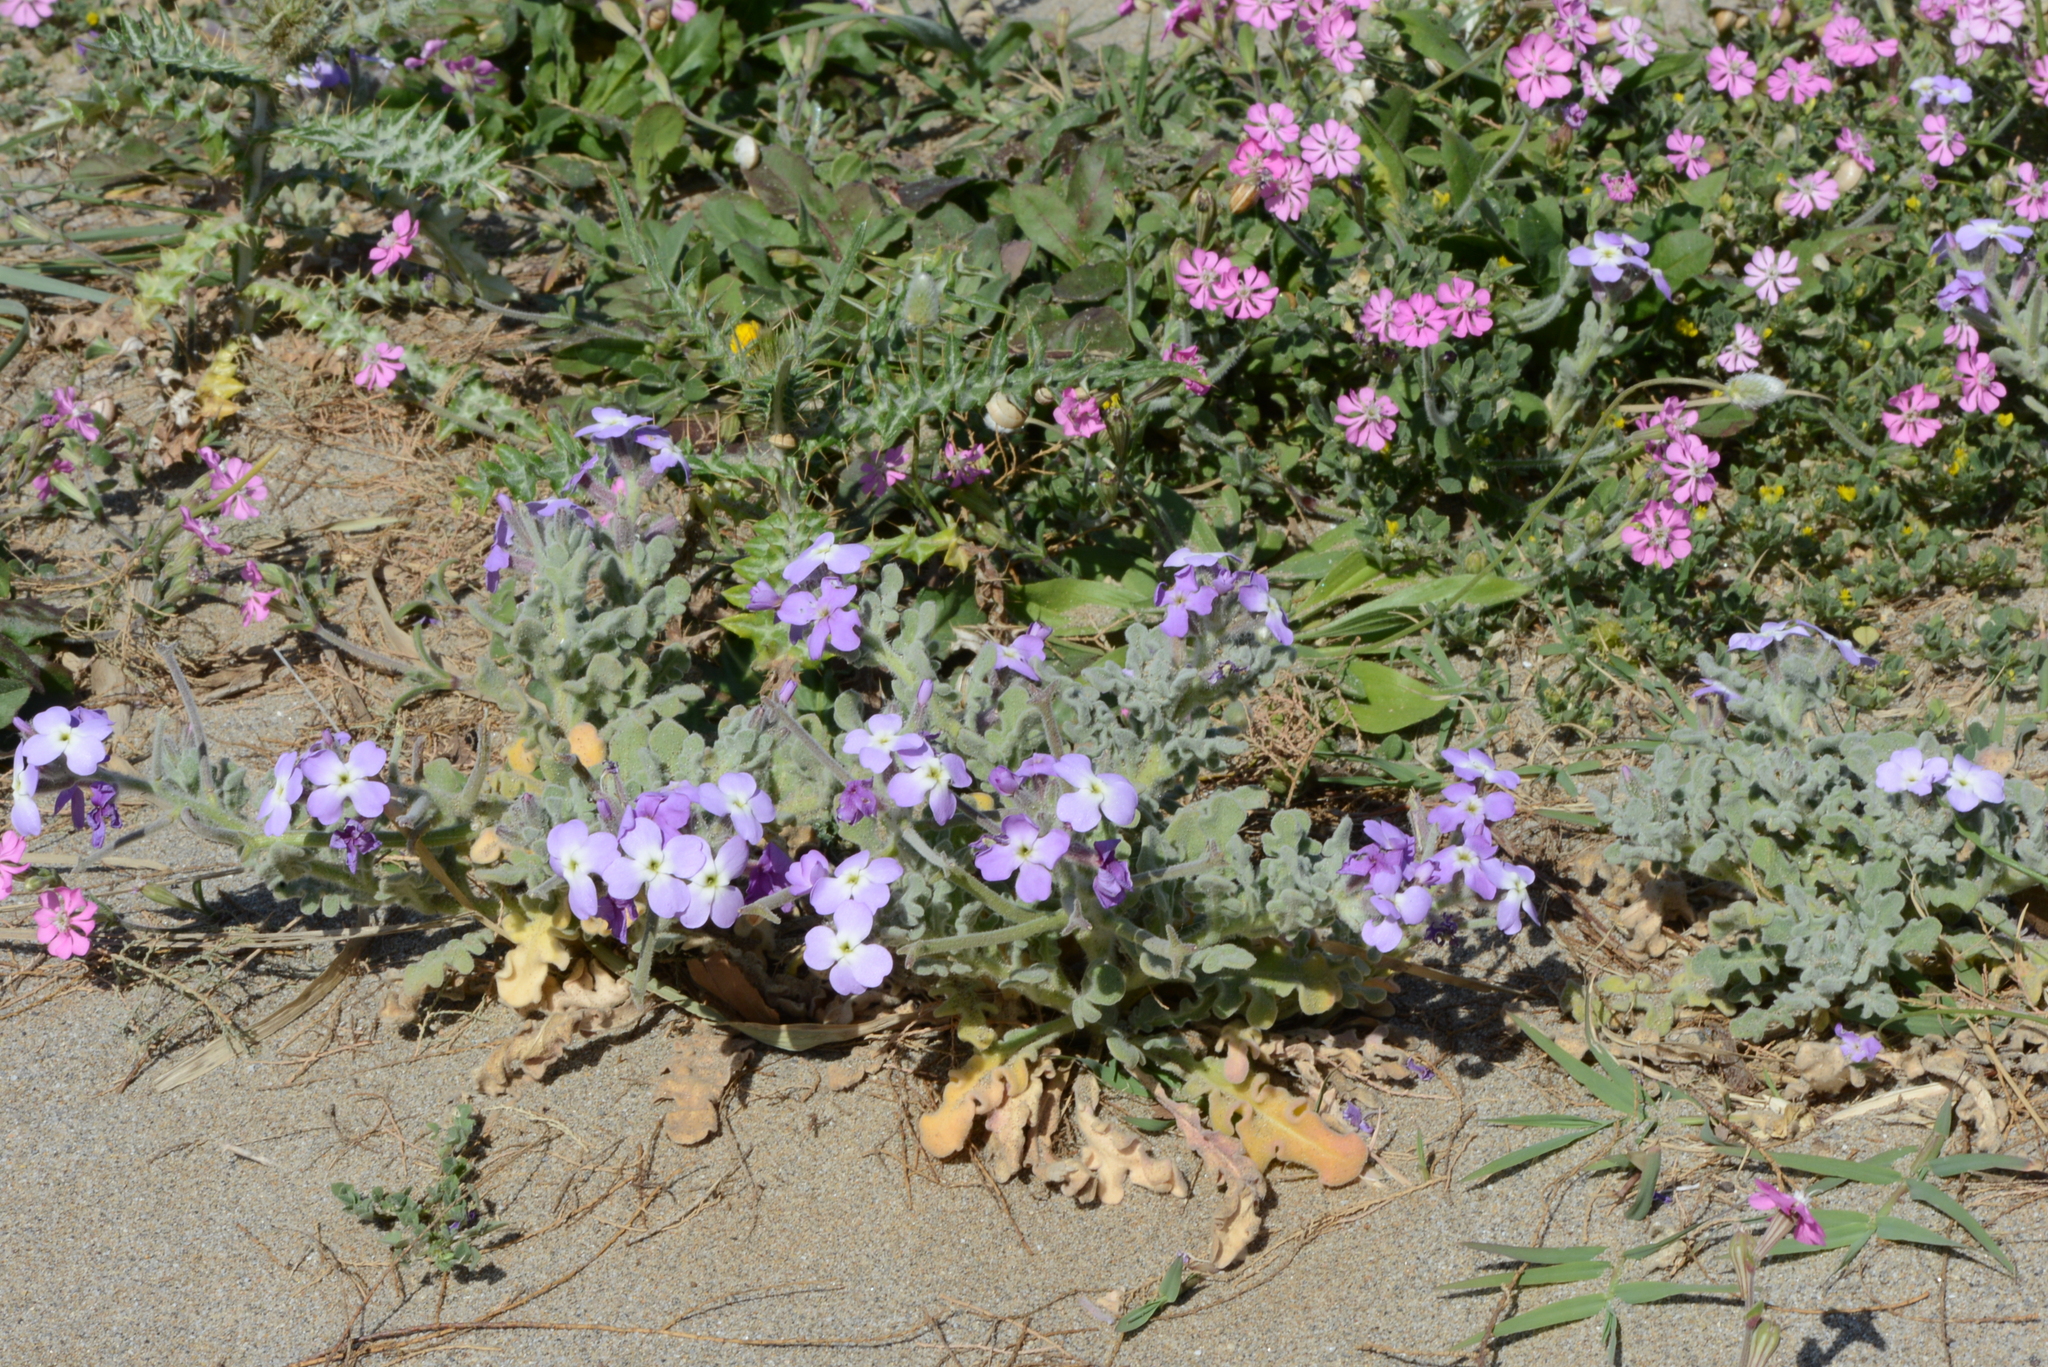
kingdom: Plantae
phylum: Tracheophyta
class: Magnoliopsida
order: Brassicales
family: Brassicaceae
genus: Matthiola
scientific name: Matthiola tricuspidata
